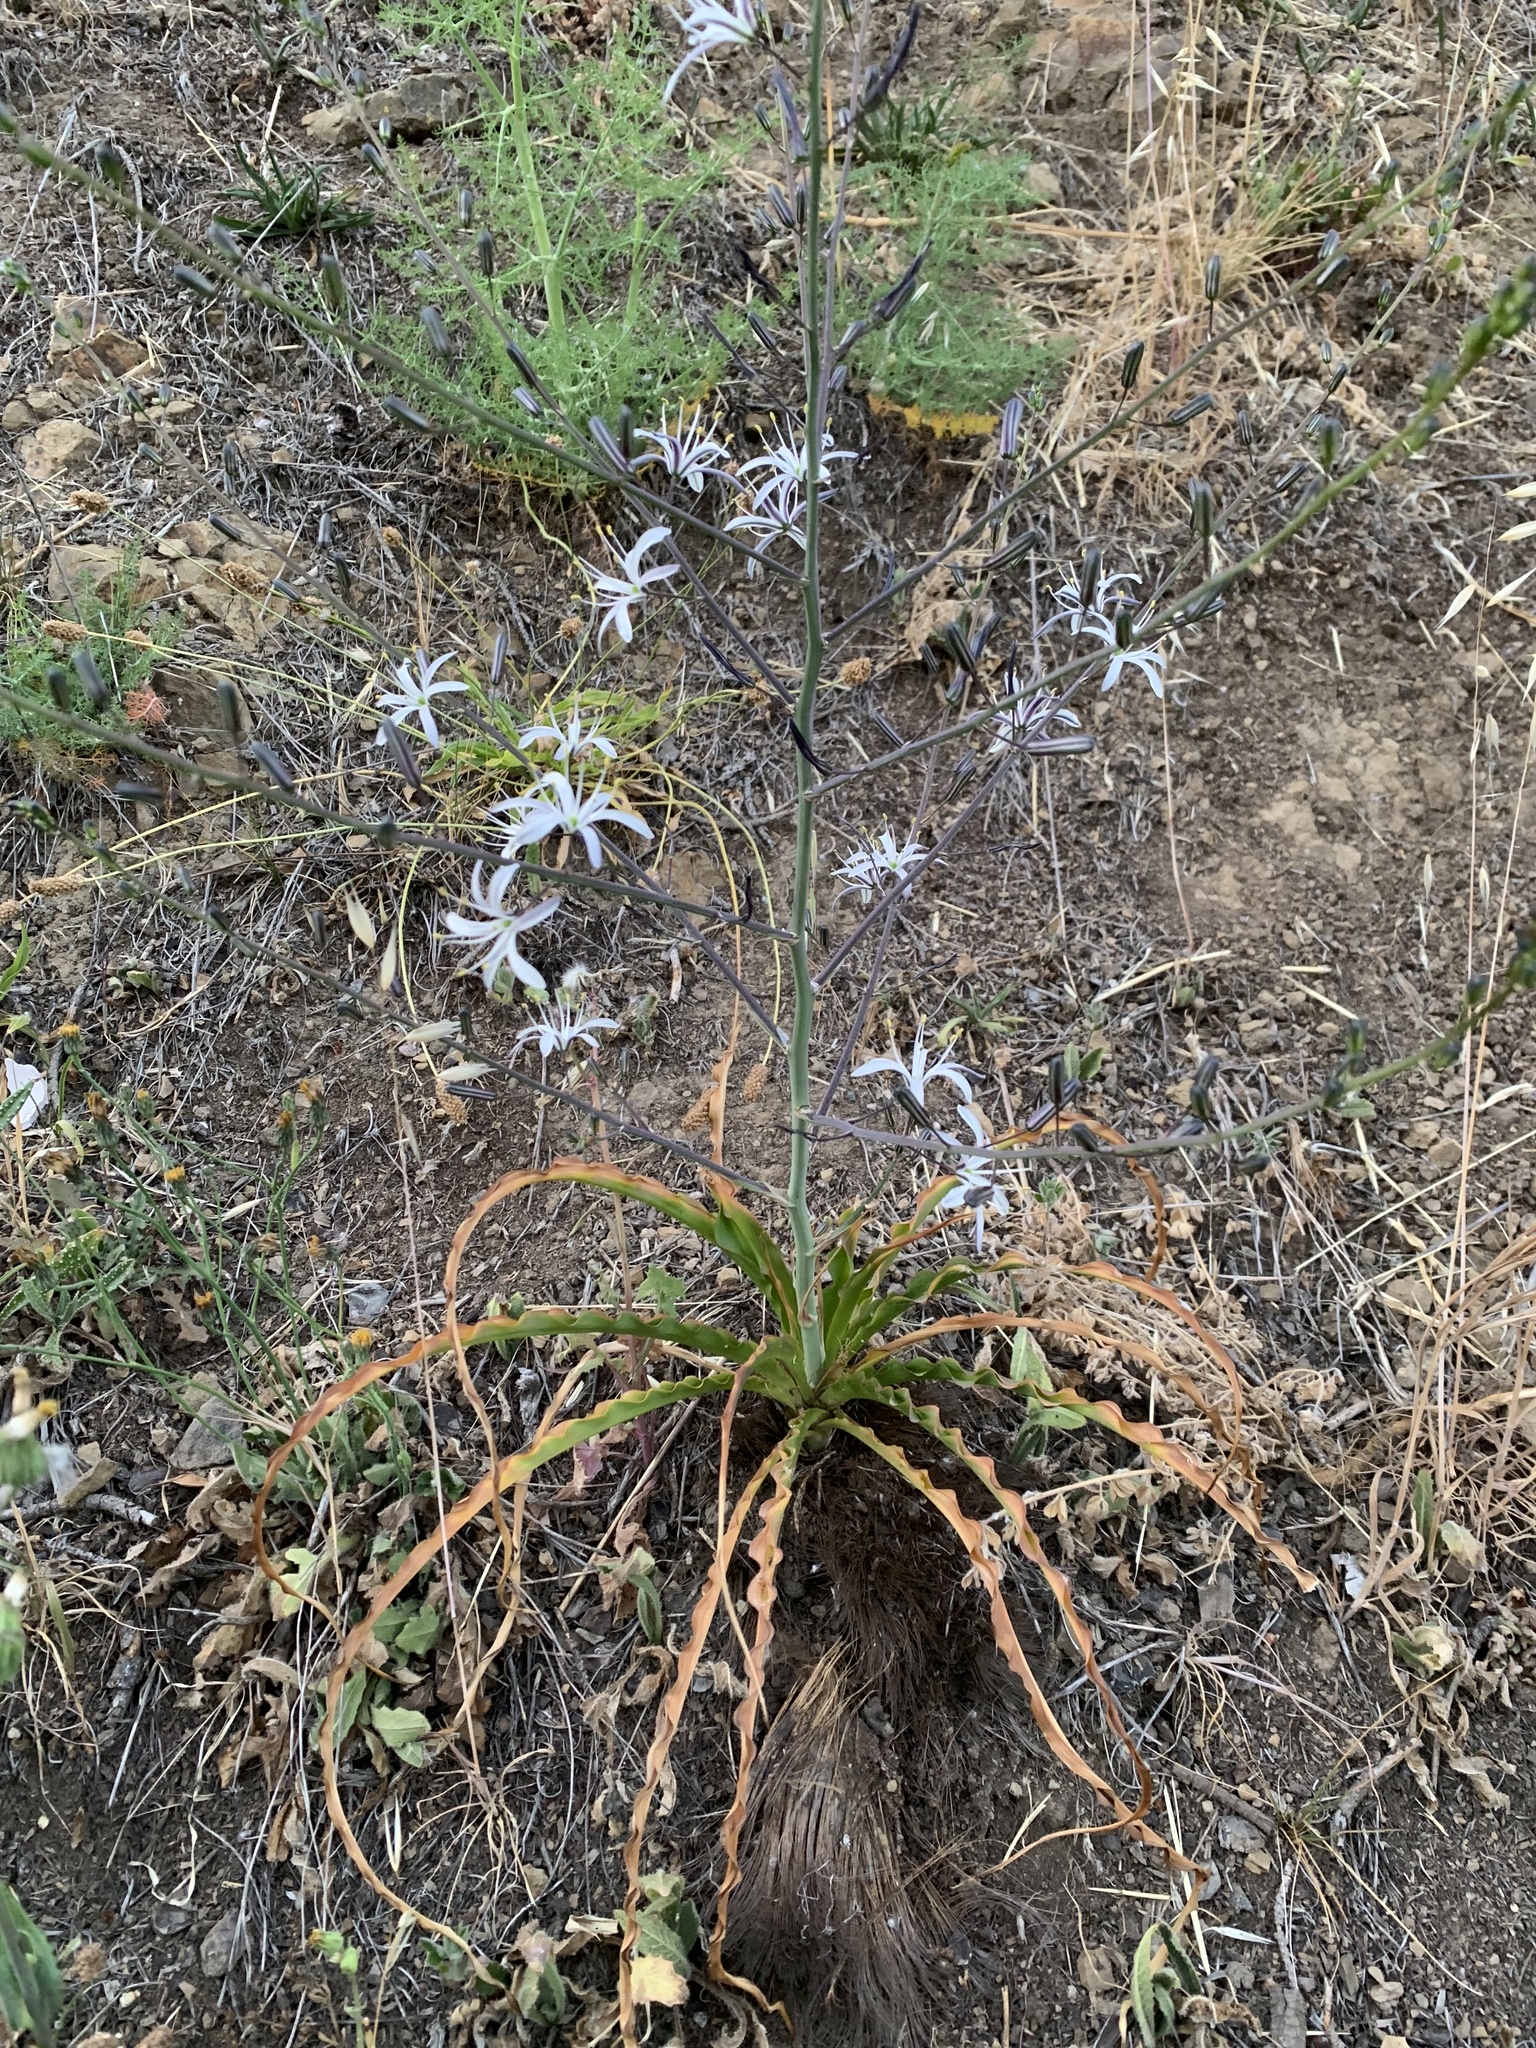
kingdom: Plantae
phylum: Tracheophyta
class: Liliopsida
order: Asparagales
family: Asparagaceae
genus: Chlorogalum
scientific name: Chlorogalum pomeridianum
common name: Amole
